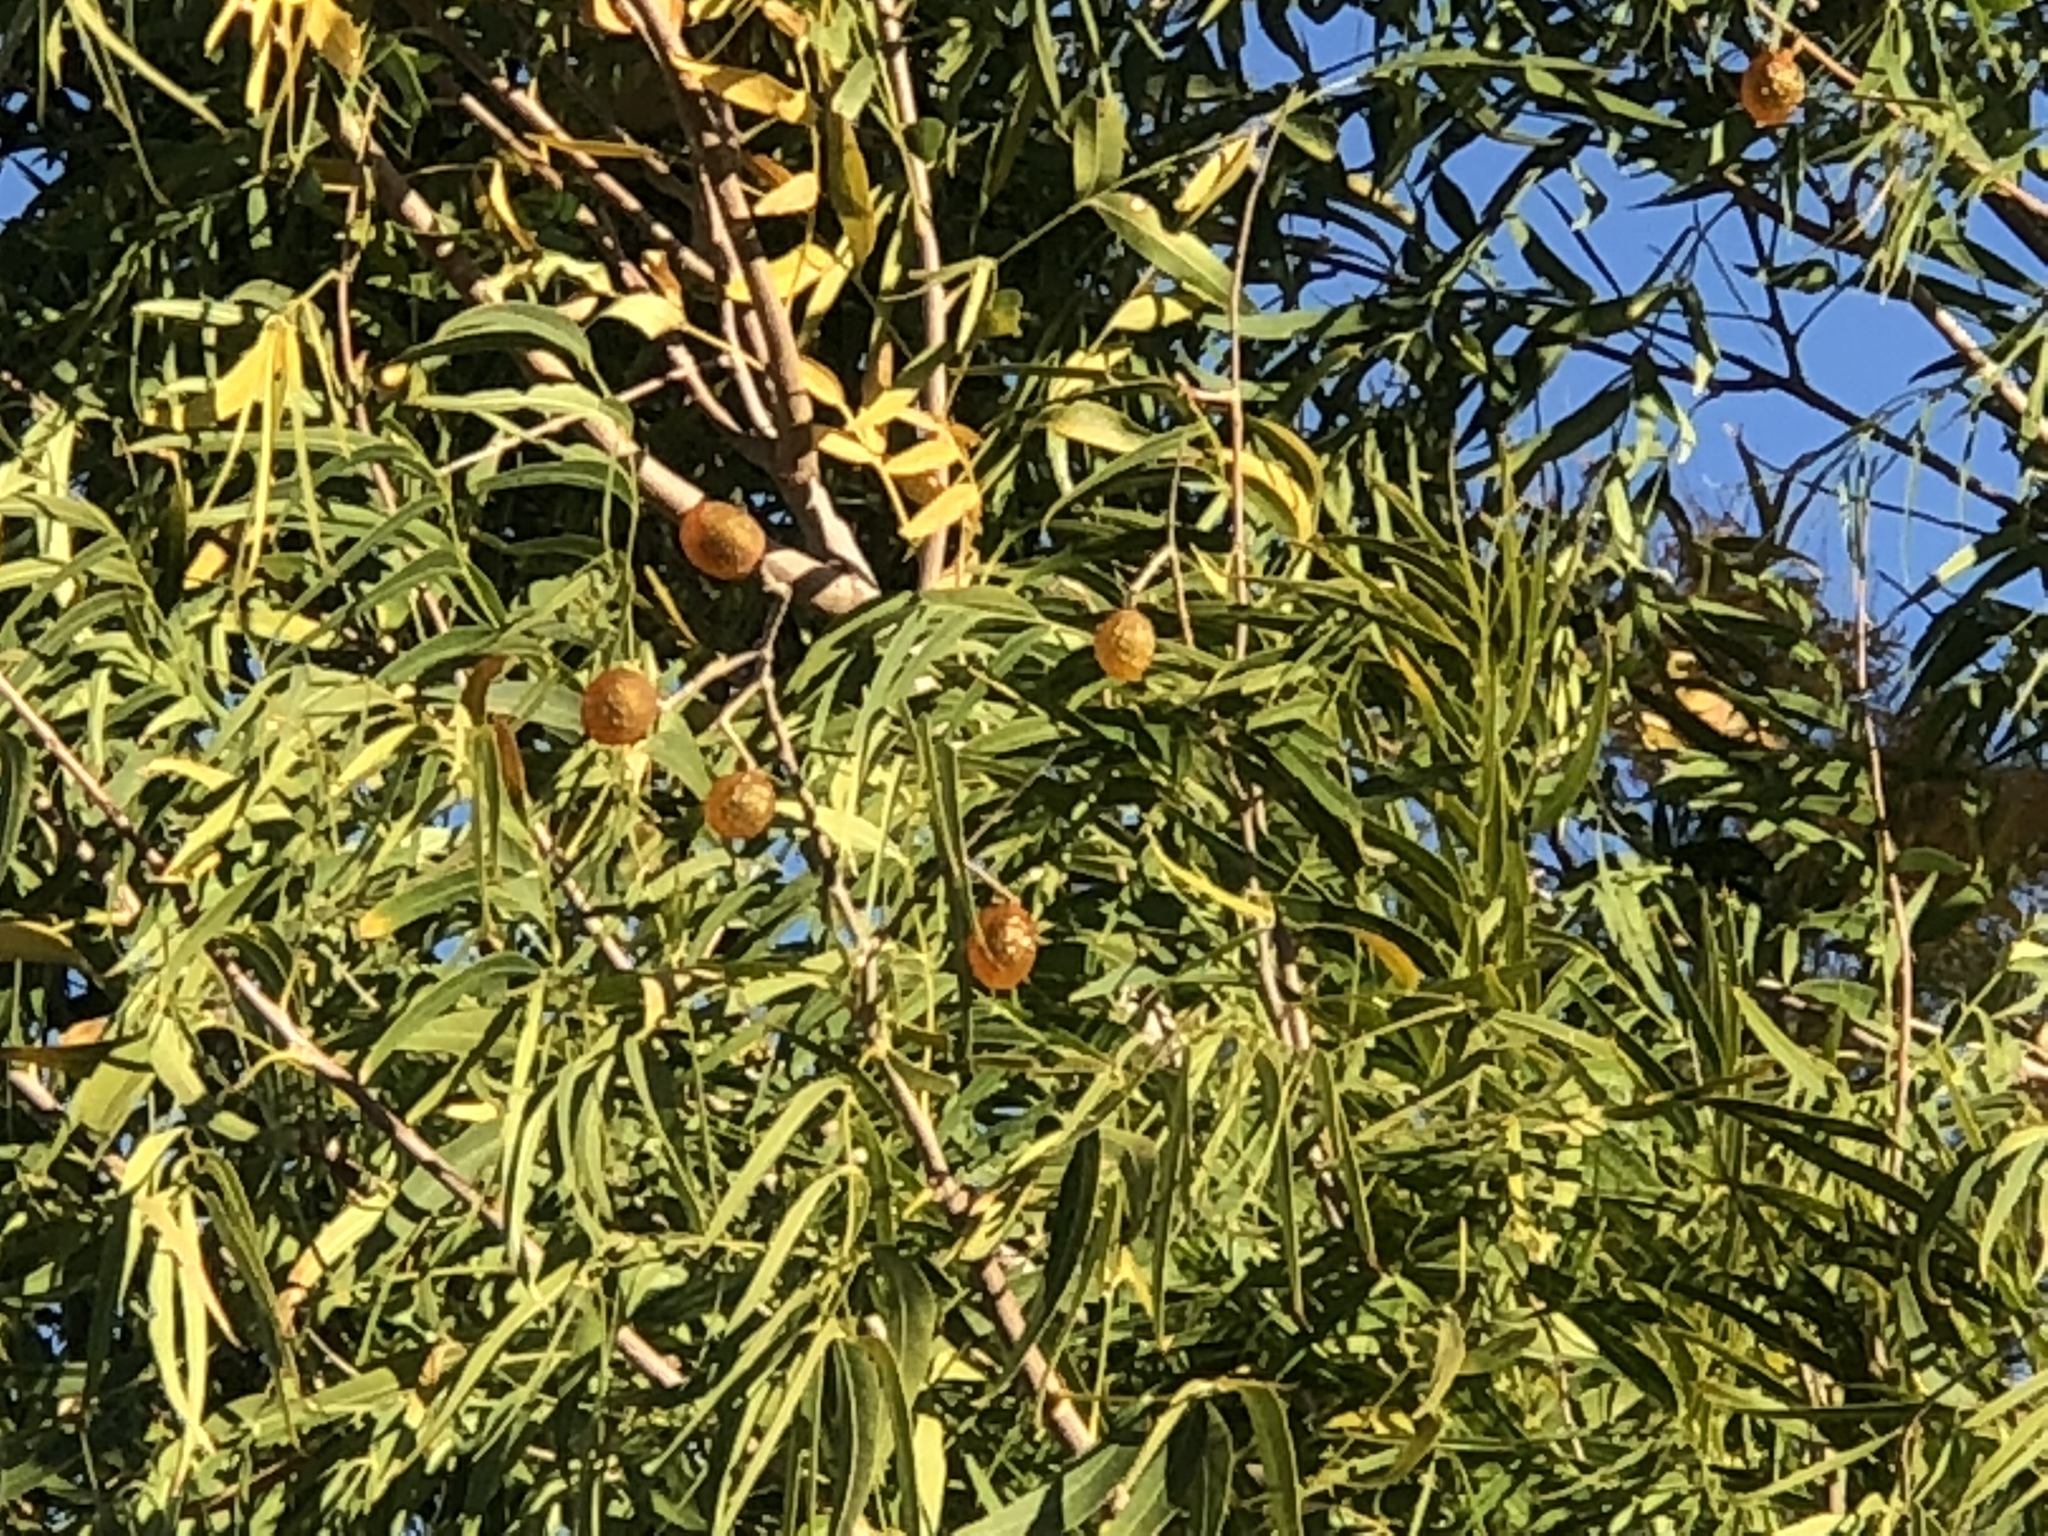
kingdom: Plantae
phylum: Tracheophyta
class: Magnoliopsida
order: Sapindales
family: Sapindaceae
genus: Sapindus
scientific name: Sapindus drummondii
